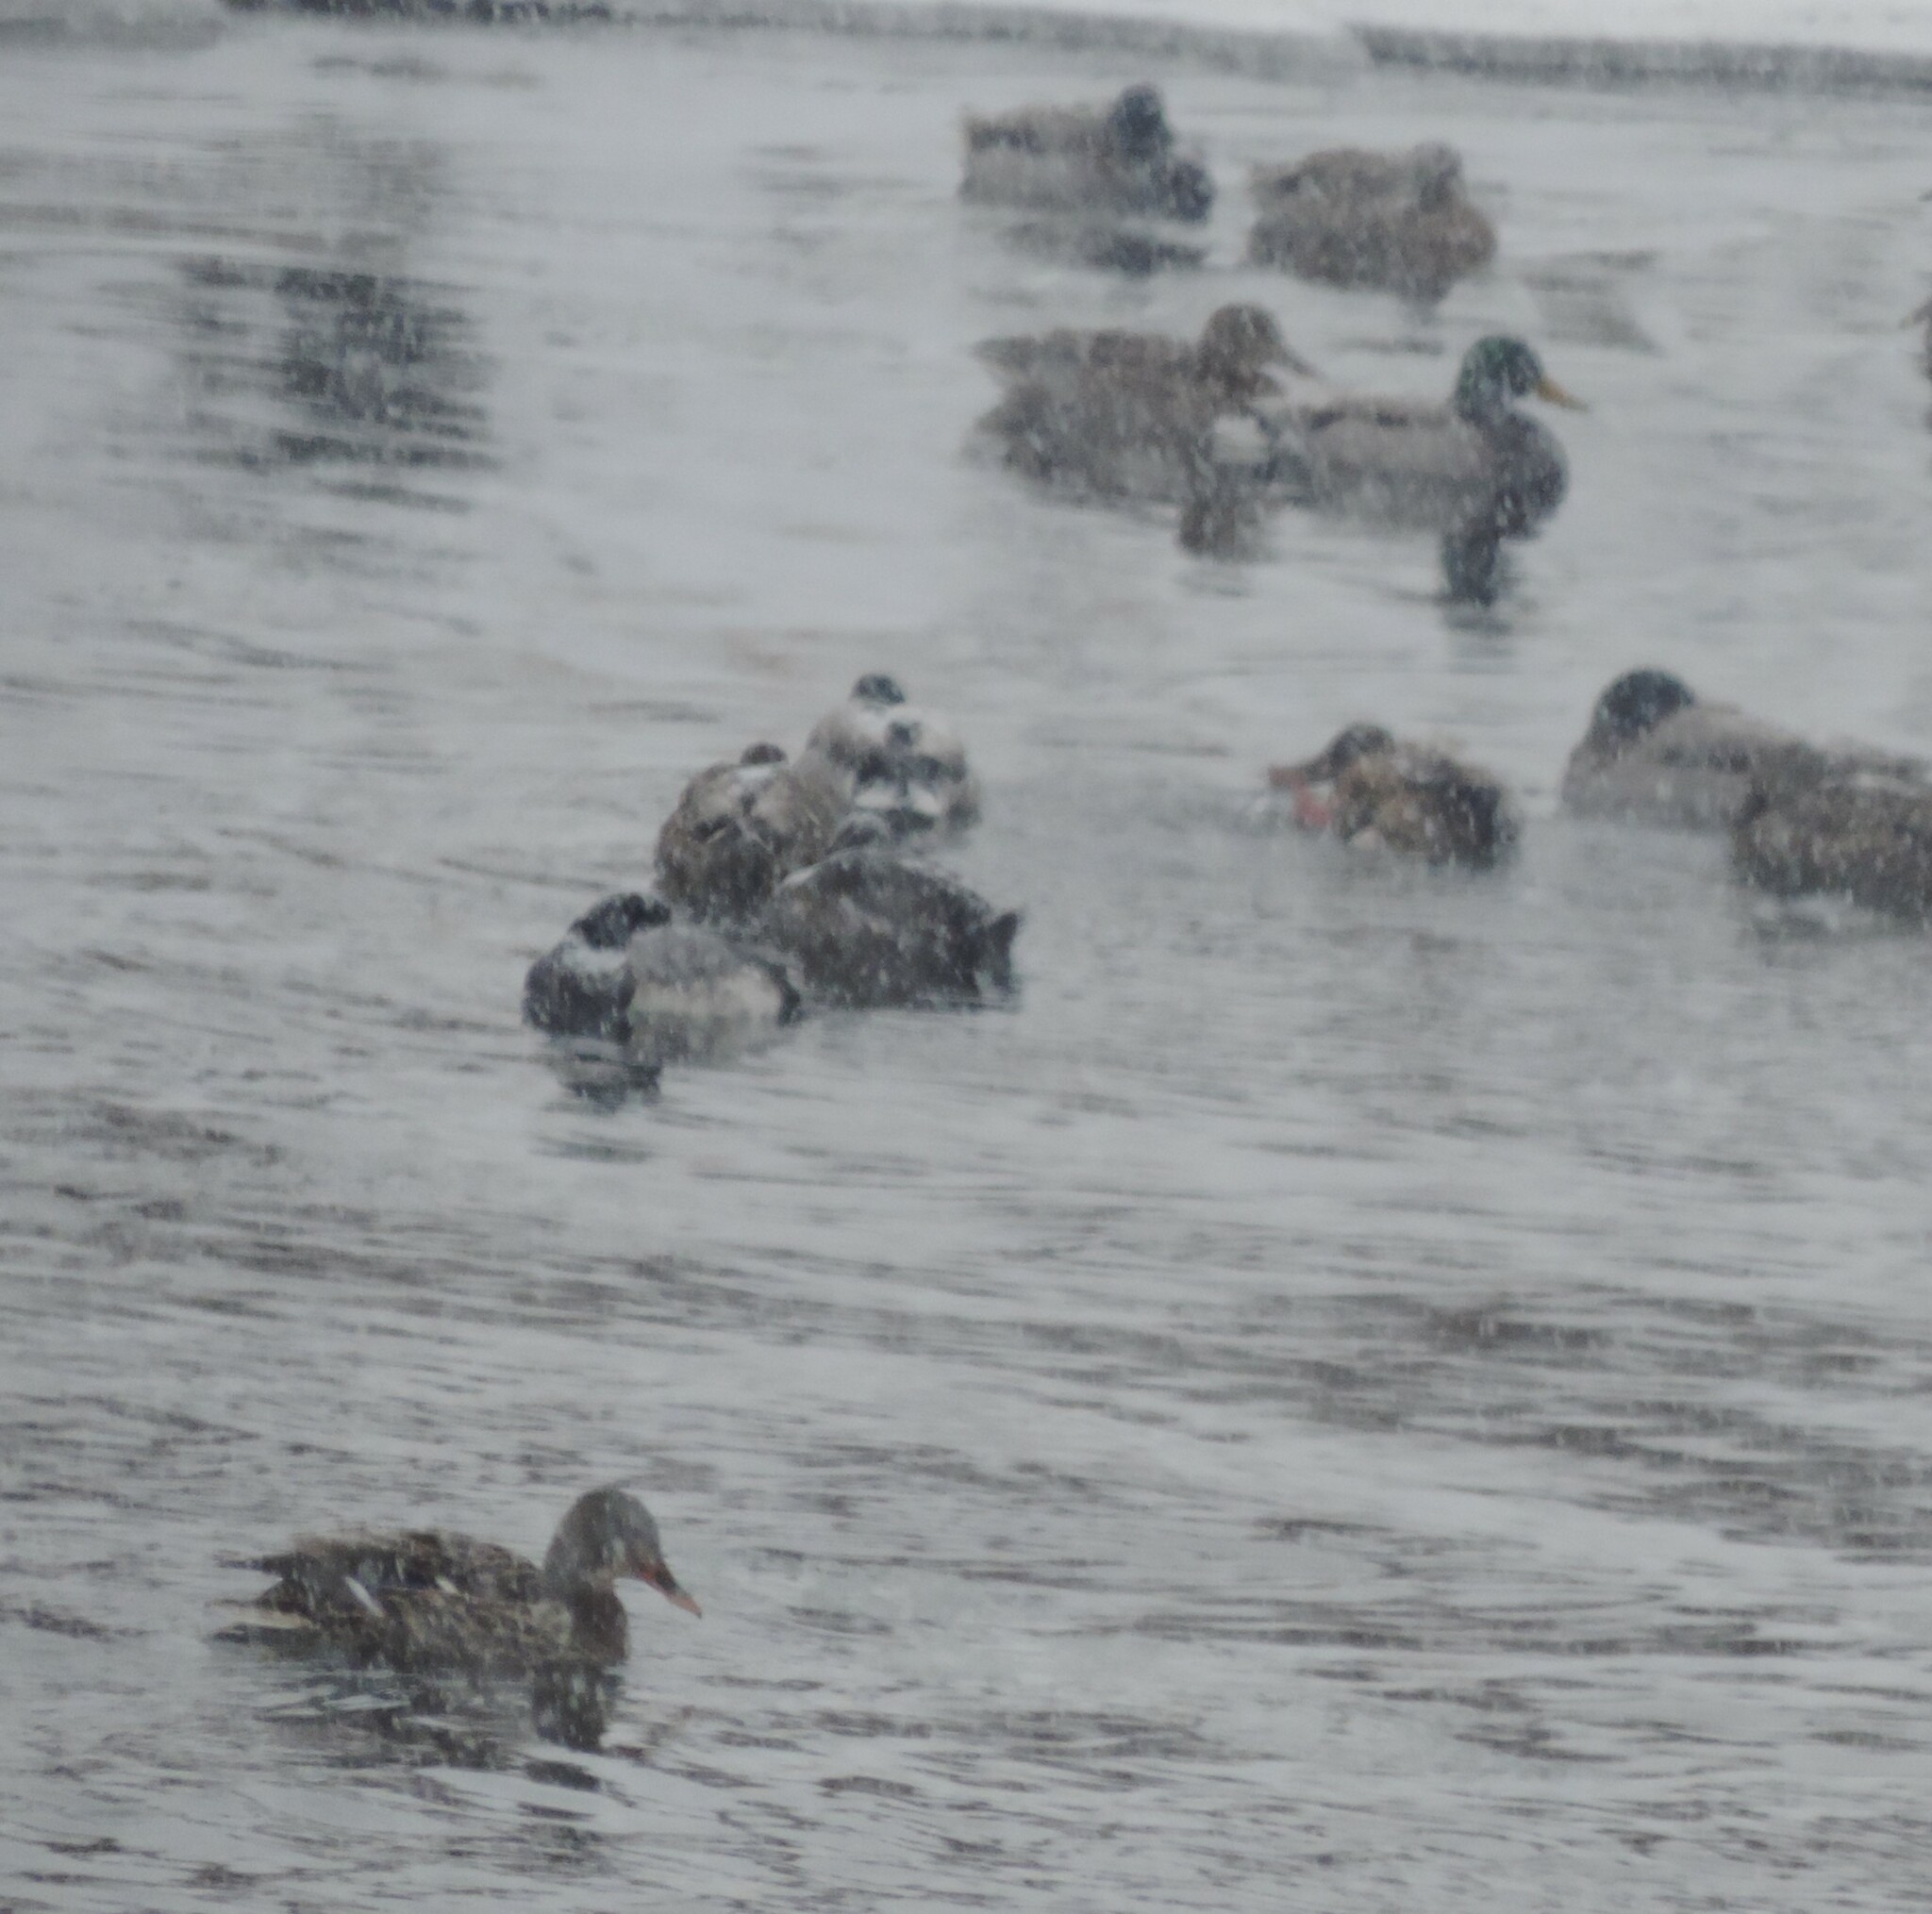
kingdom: Animalia
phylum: Chordata
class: Aves
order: Anseriformes
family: Anatidae
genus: Anas
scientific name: Anas platyrhynchos
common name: Mallard
